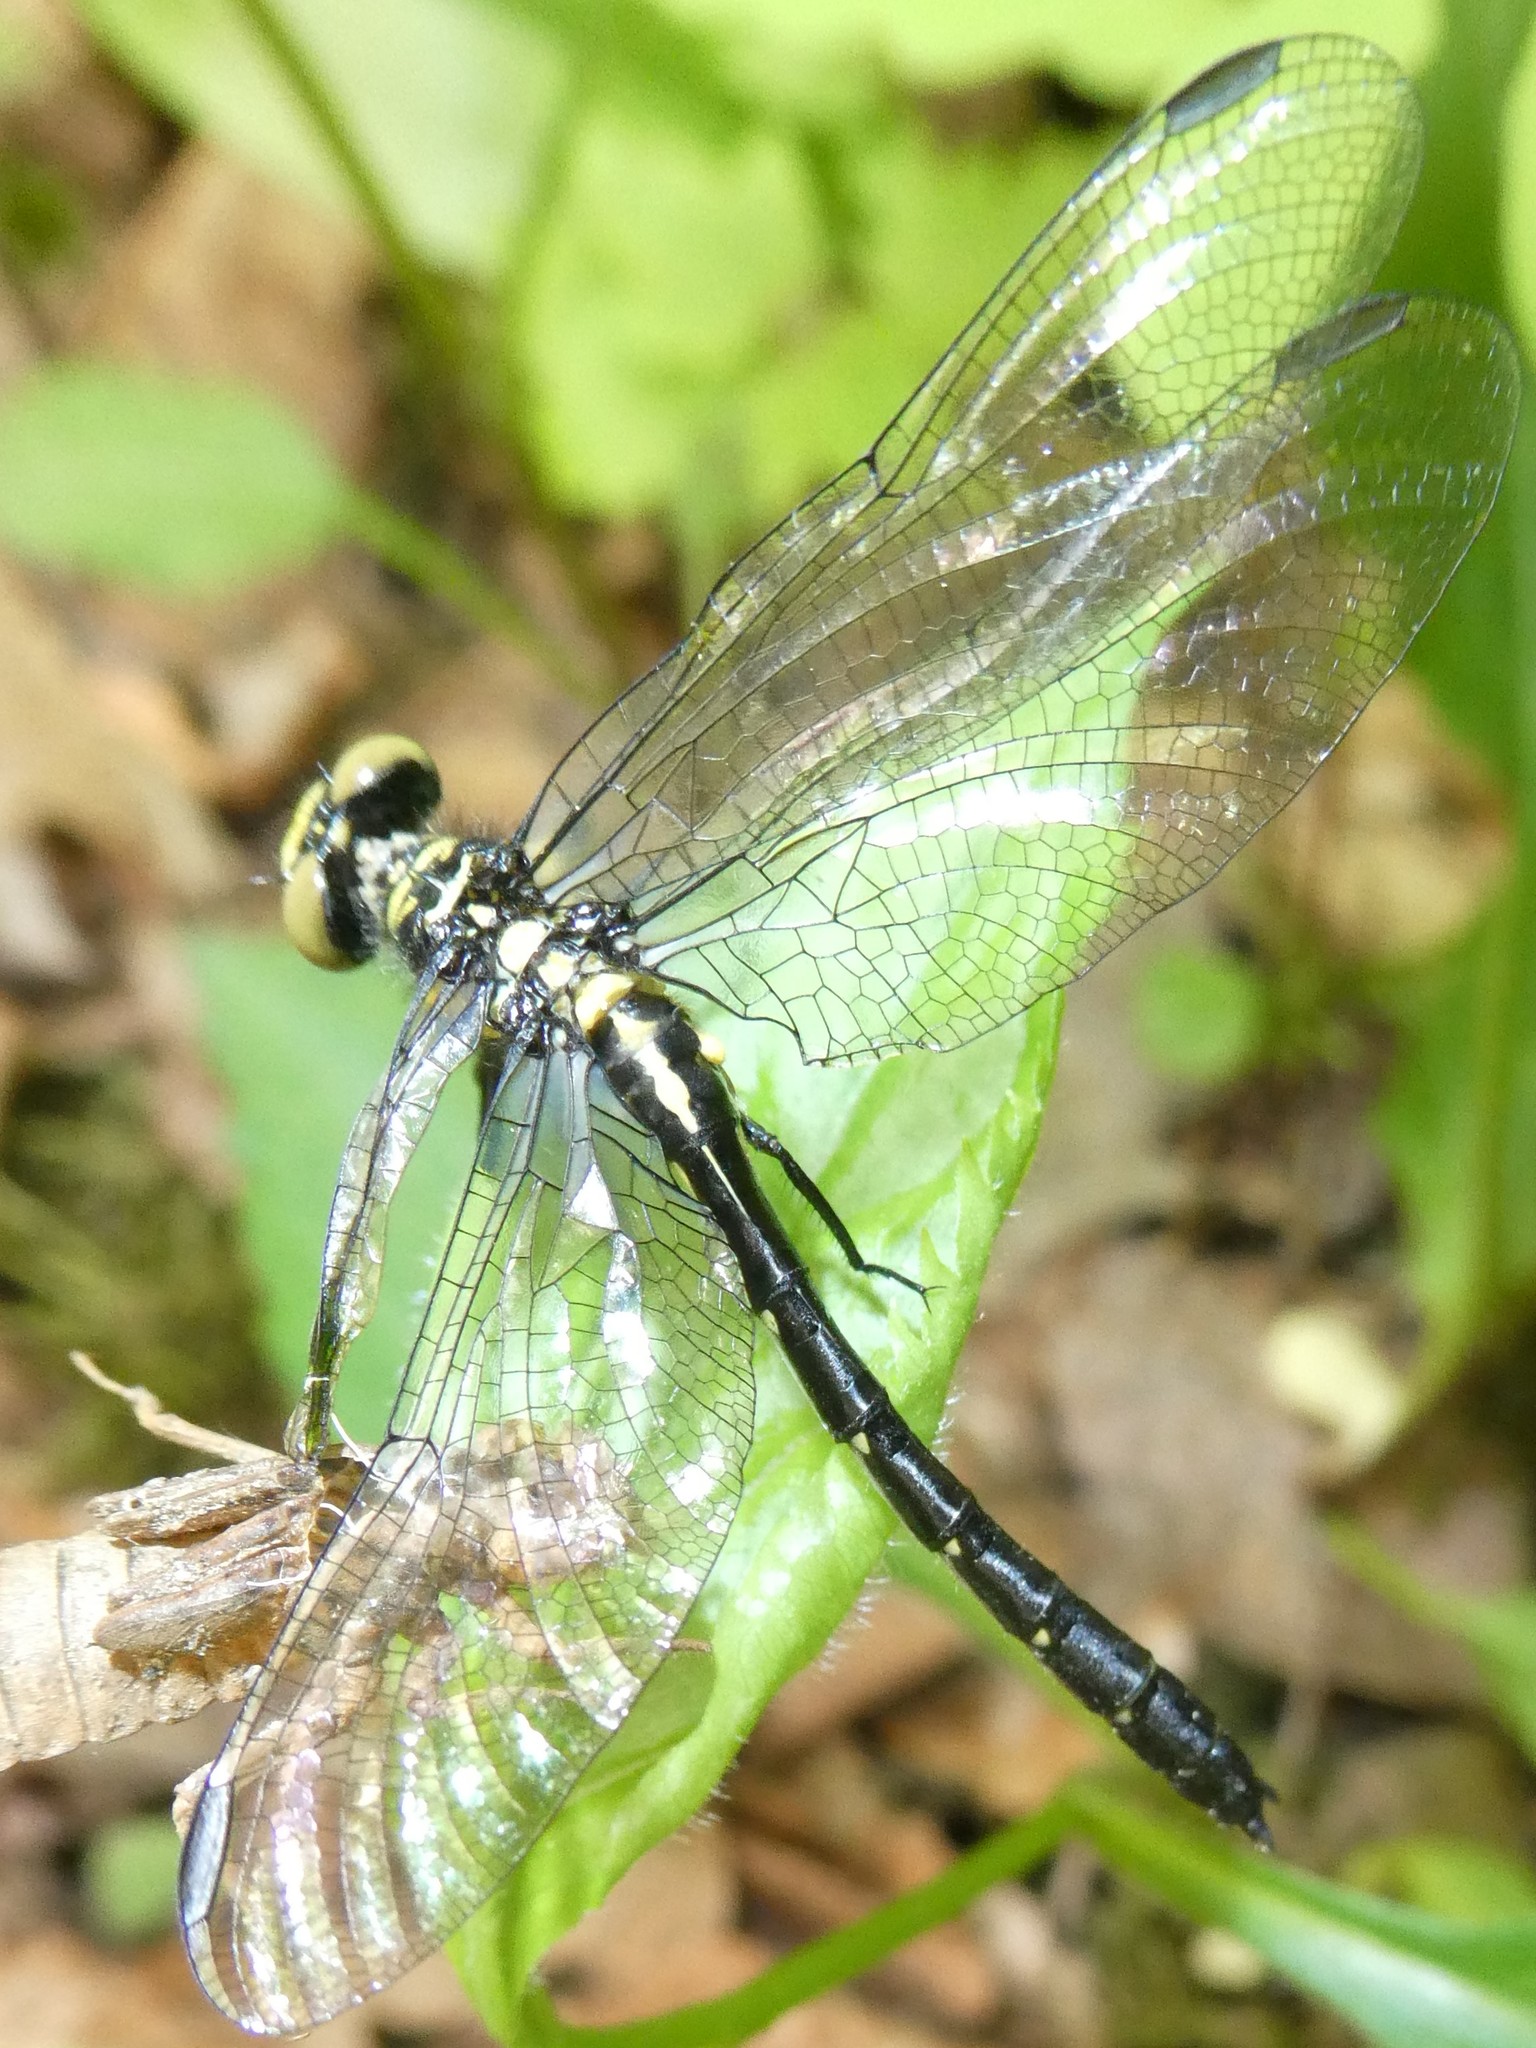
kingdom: Animalia
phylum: Arthropoda
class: Insecta
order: Odonata
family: Gomphidae
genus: Lanthus
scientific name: Lanthus parvulus
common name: Northern pygmy clubtail
